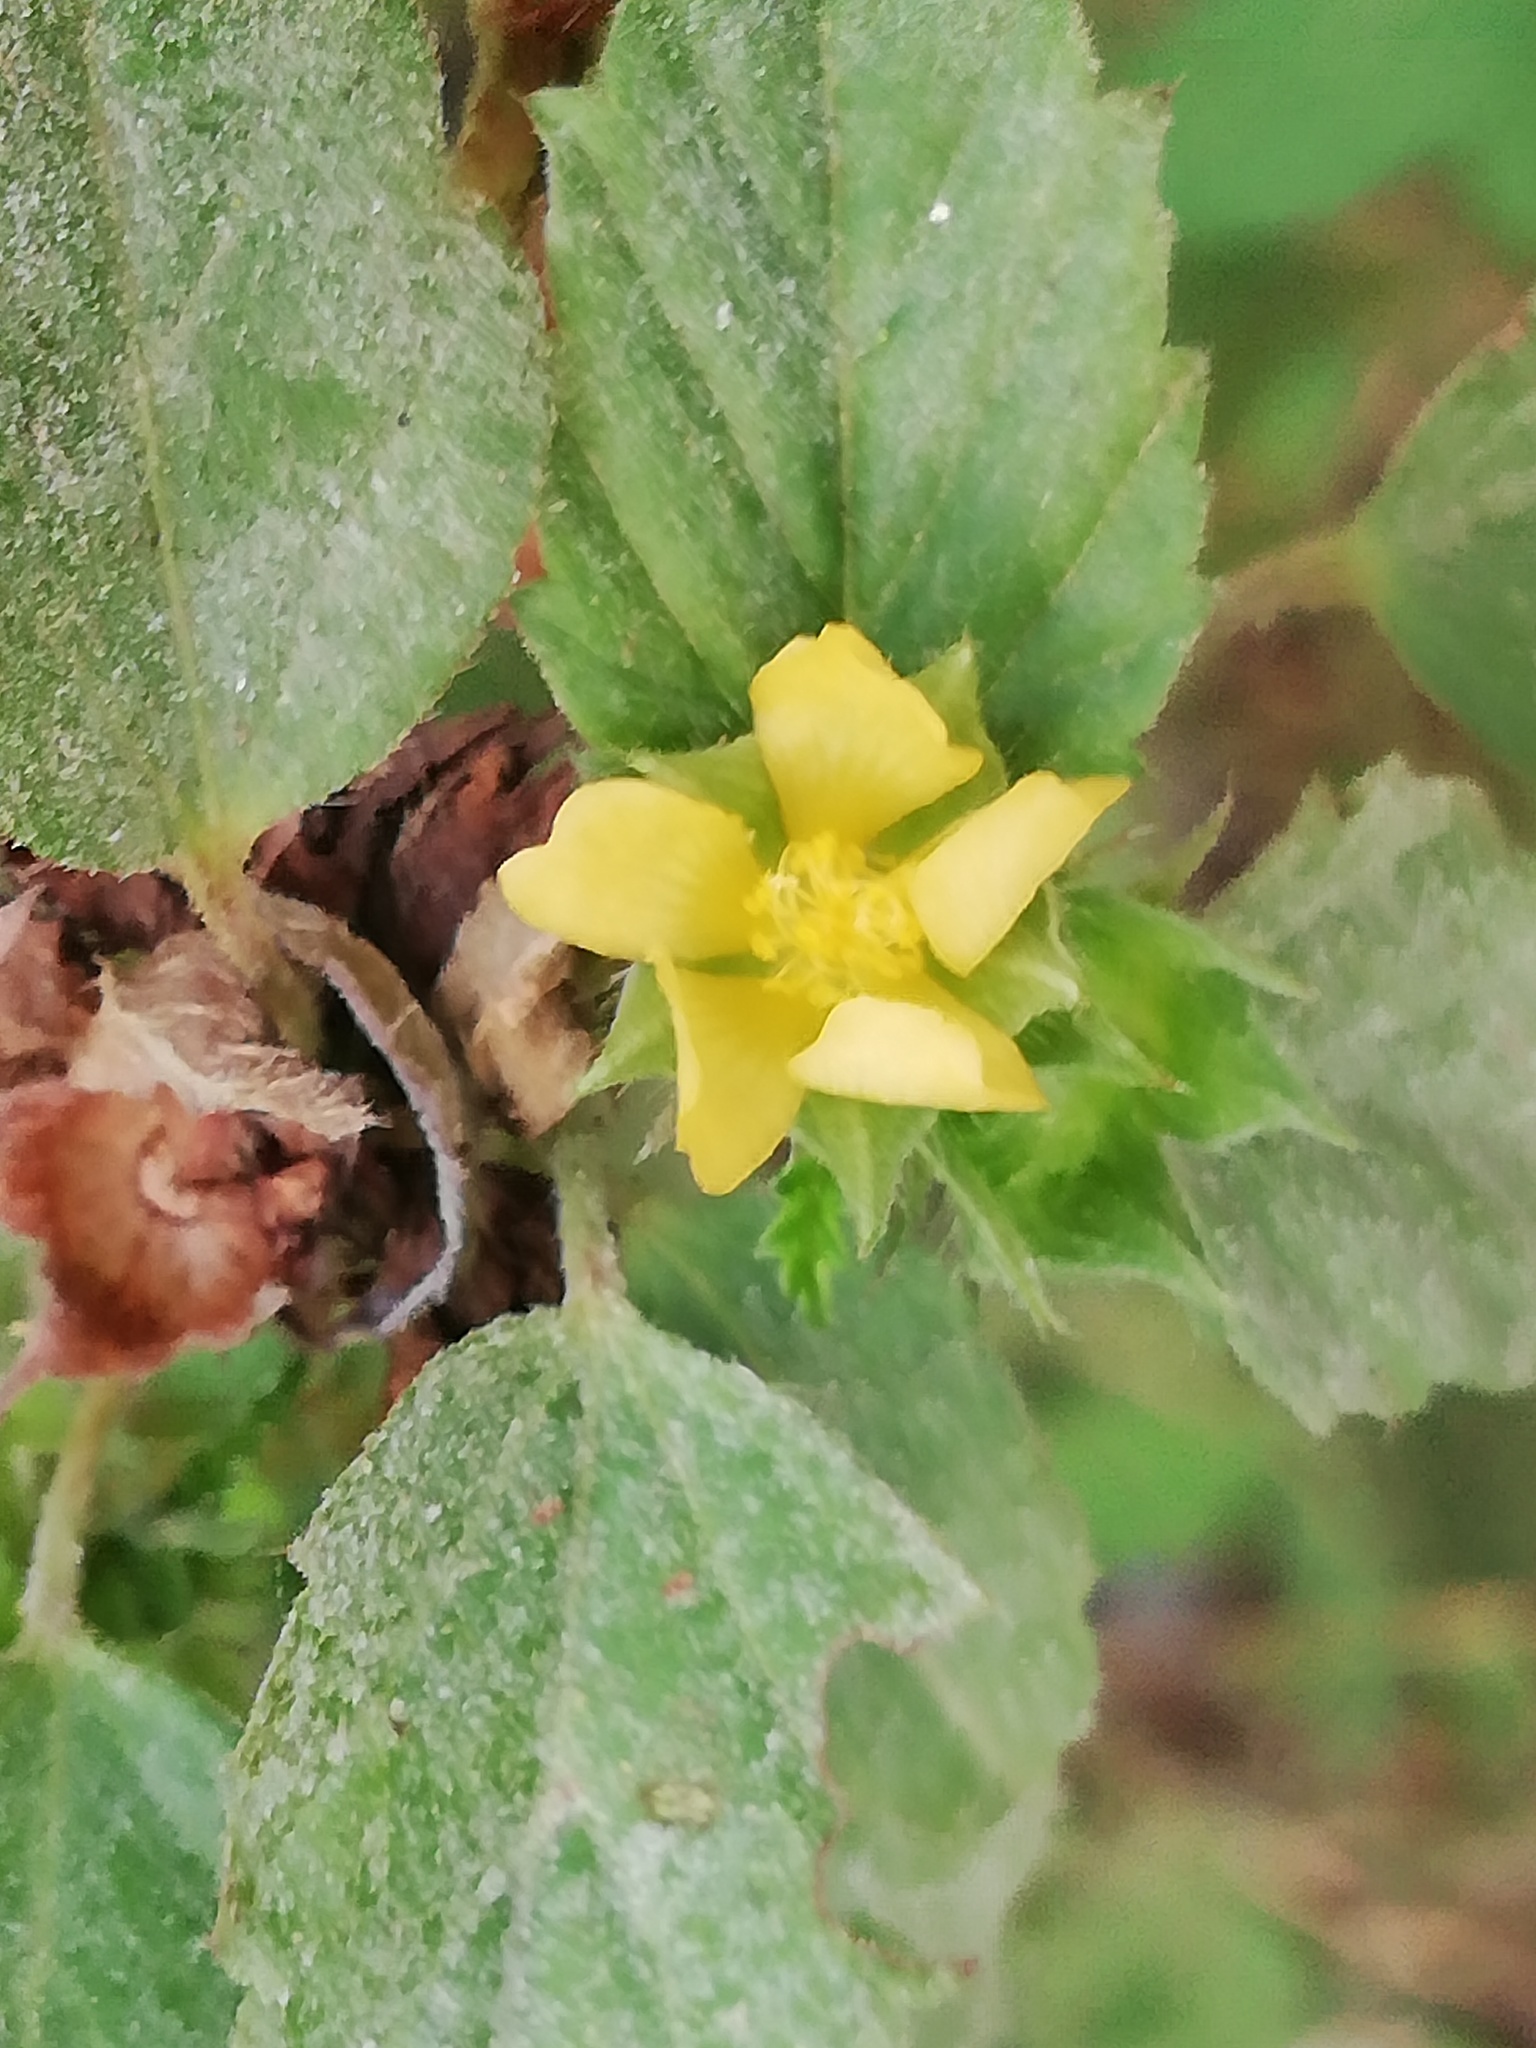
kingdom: Plantae
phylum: Tracheophyta
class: Magnoliopsida
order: Malvales
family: Malvaceae
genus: Malvastrum
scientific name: Malvastrum coromandelianum
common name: Threelobe false mallow
